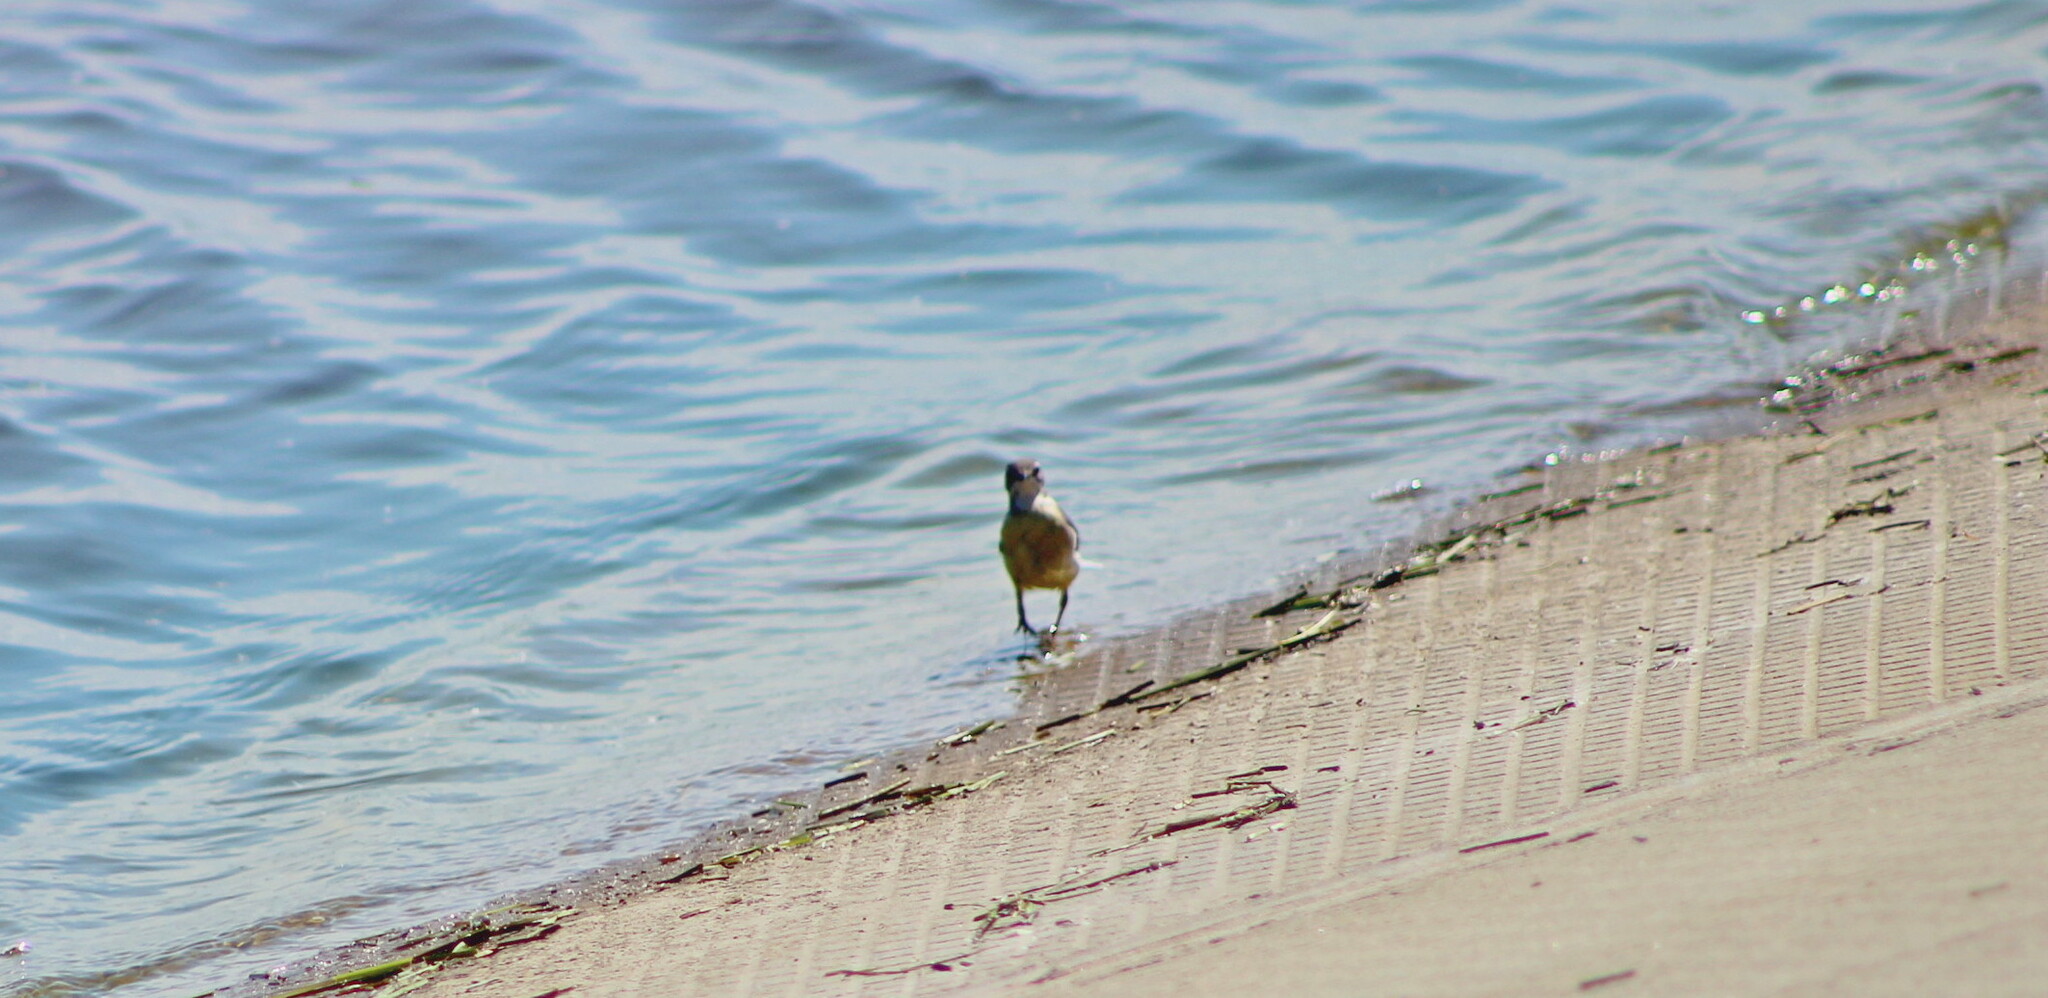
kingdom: Animalia
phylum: Chordata
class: Aves
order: Passeriformes
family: Motacillidae
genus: Motacilla
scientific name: Motacilla cinerea
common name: Grey wagtail
